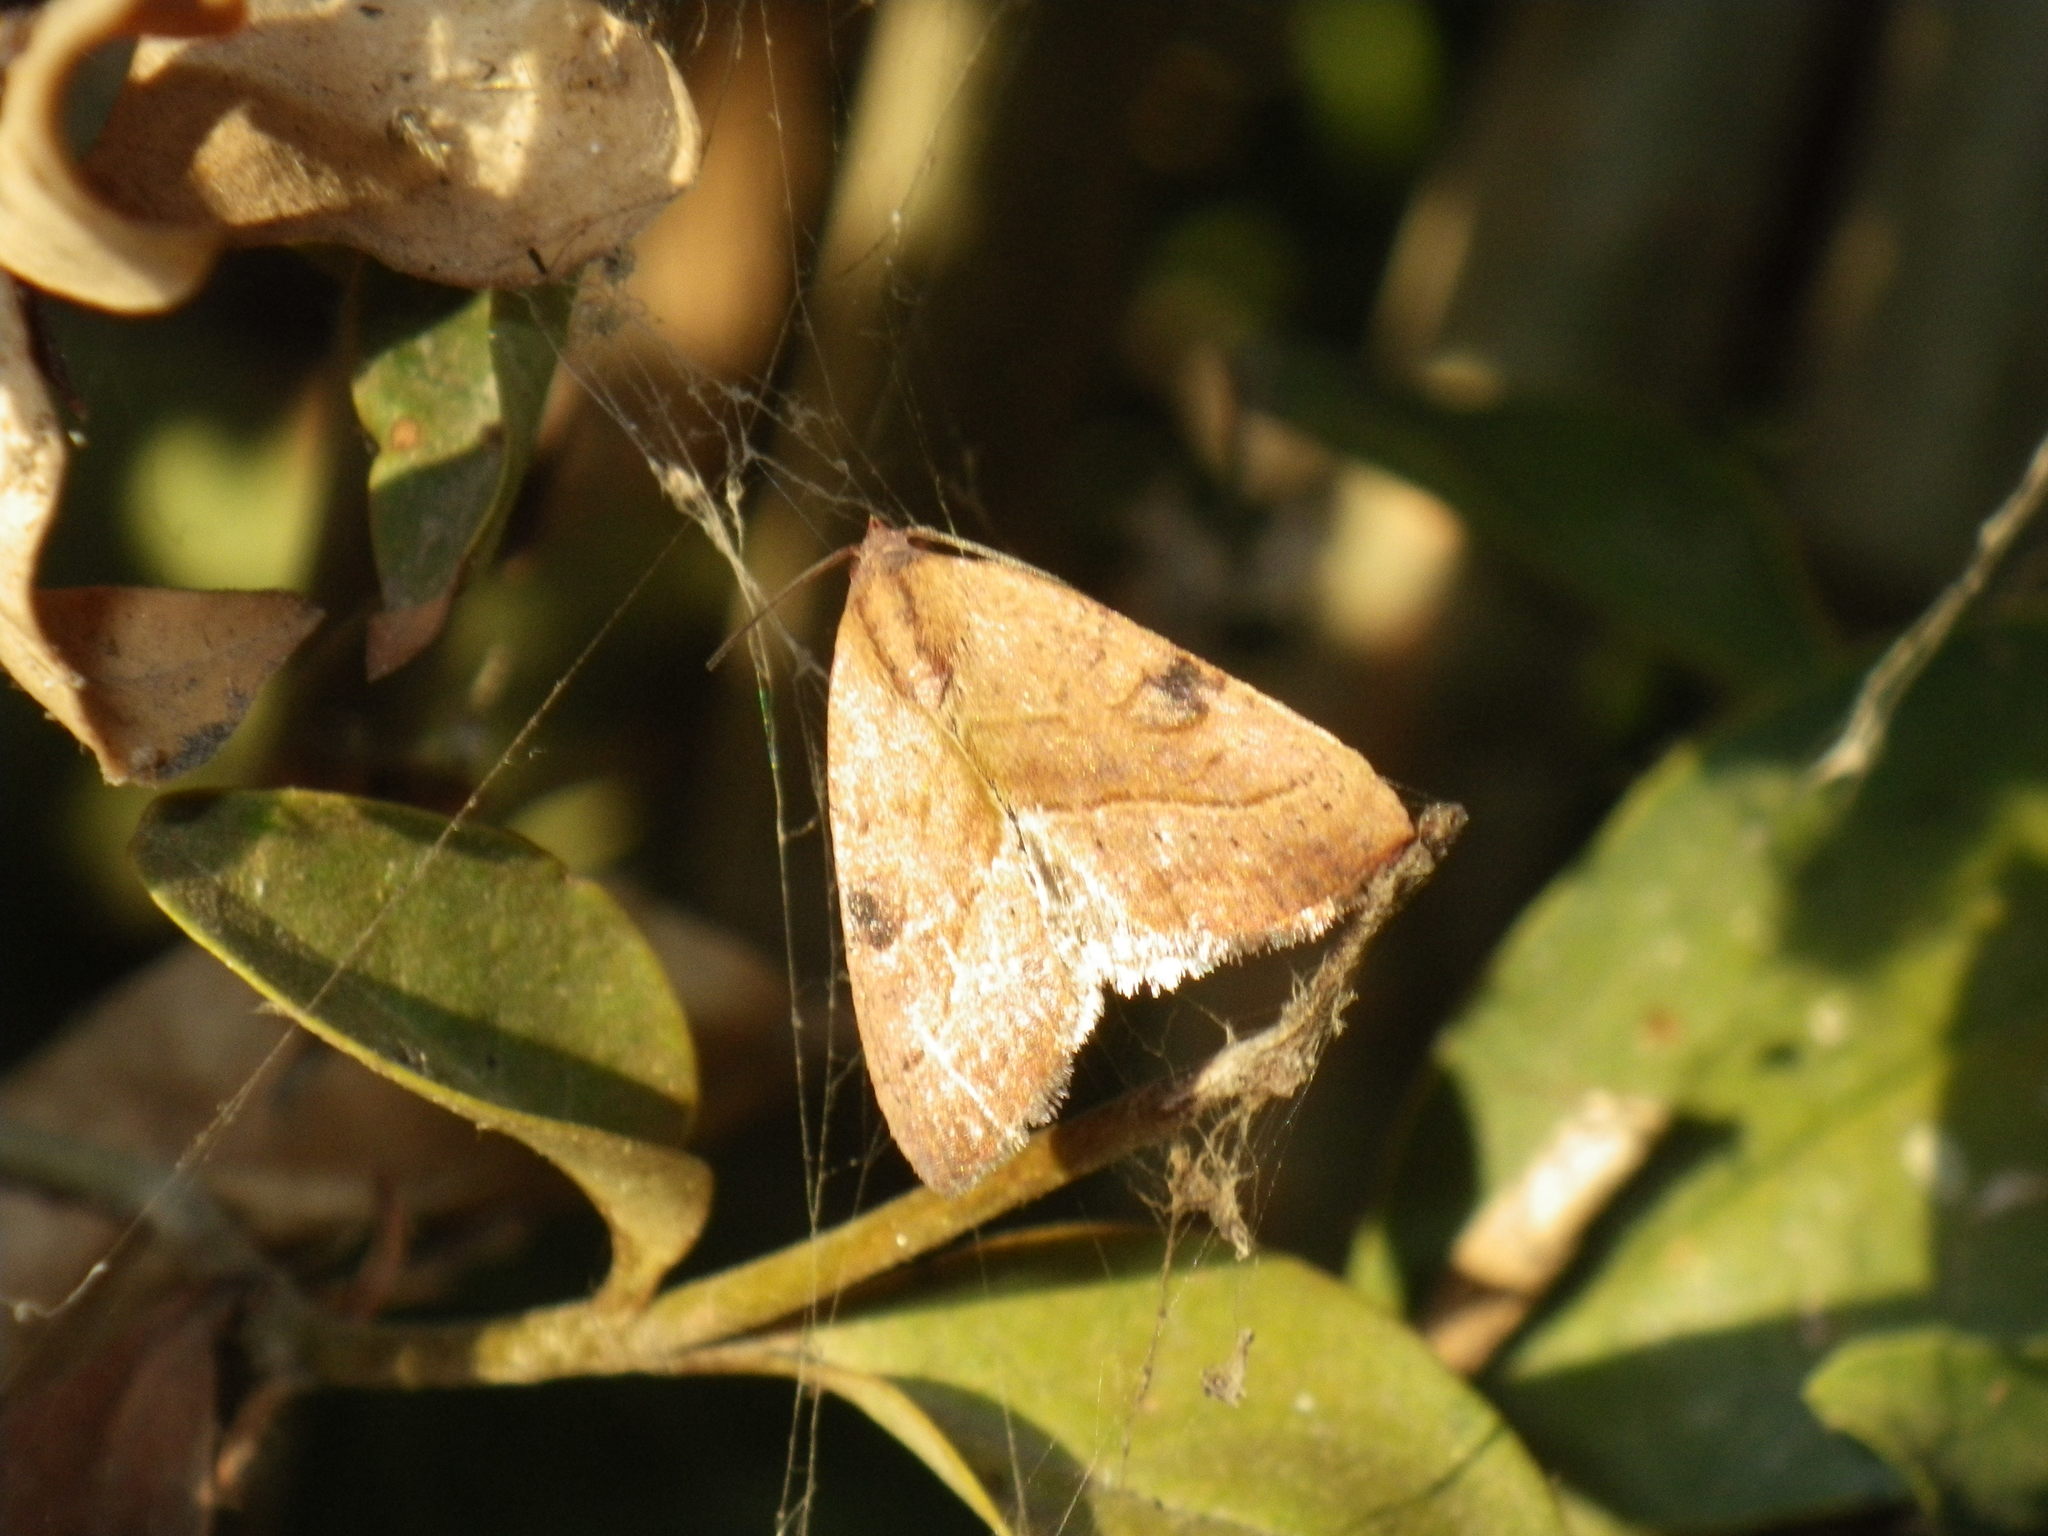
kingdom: Animalia
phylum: Arthropoda
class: Insecta
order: Lepidoptera
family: Noctuidae
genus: Galgula
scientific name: Galgula partita
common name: Wedgeling
